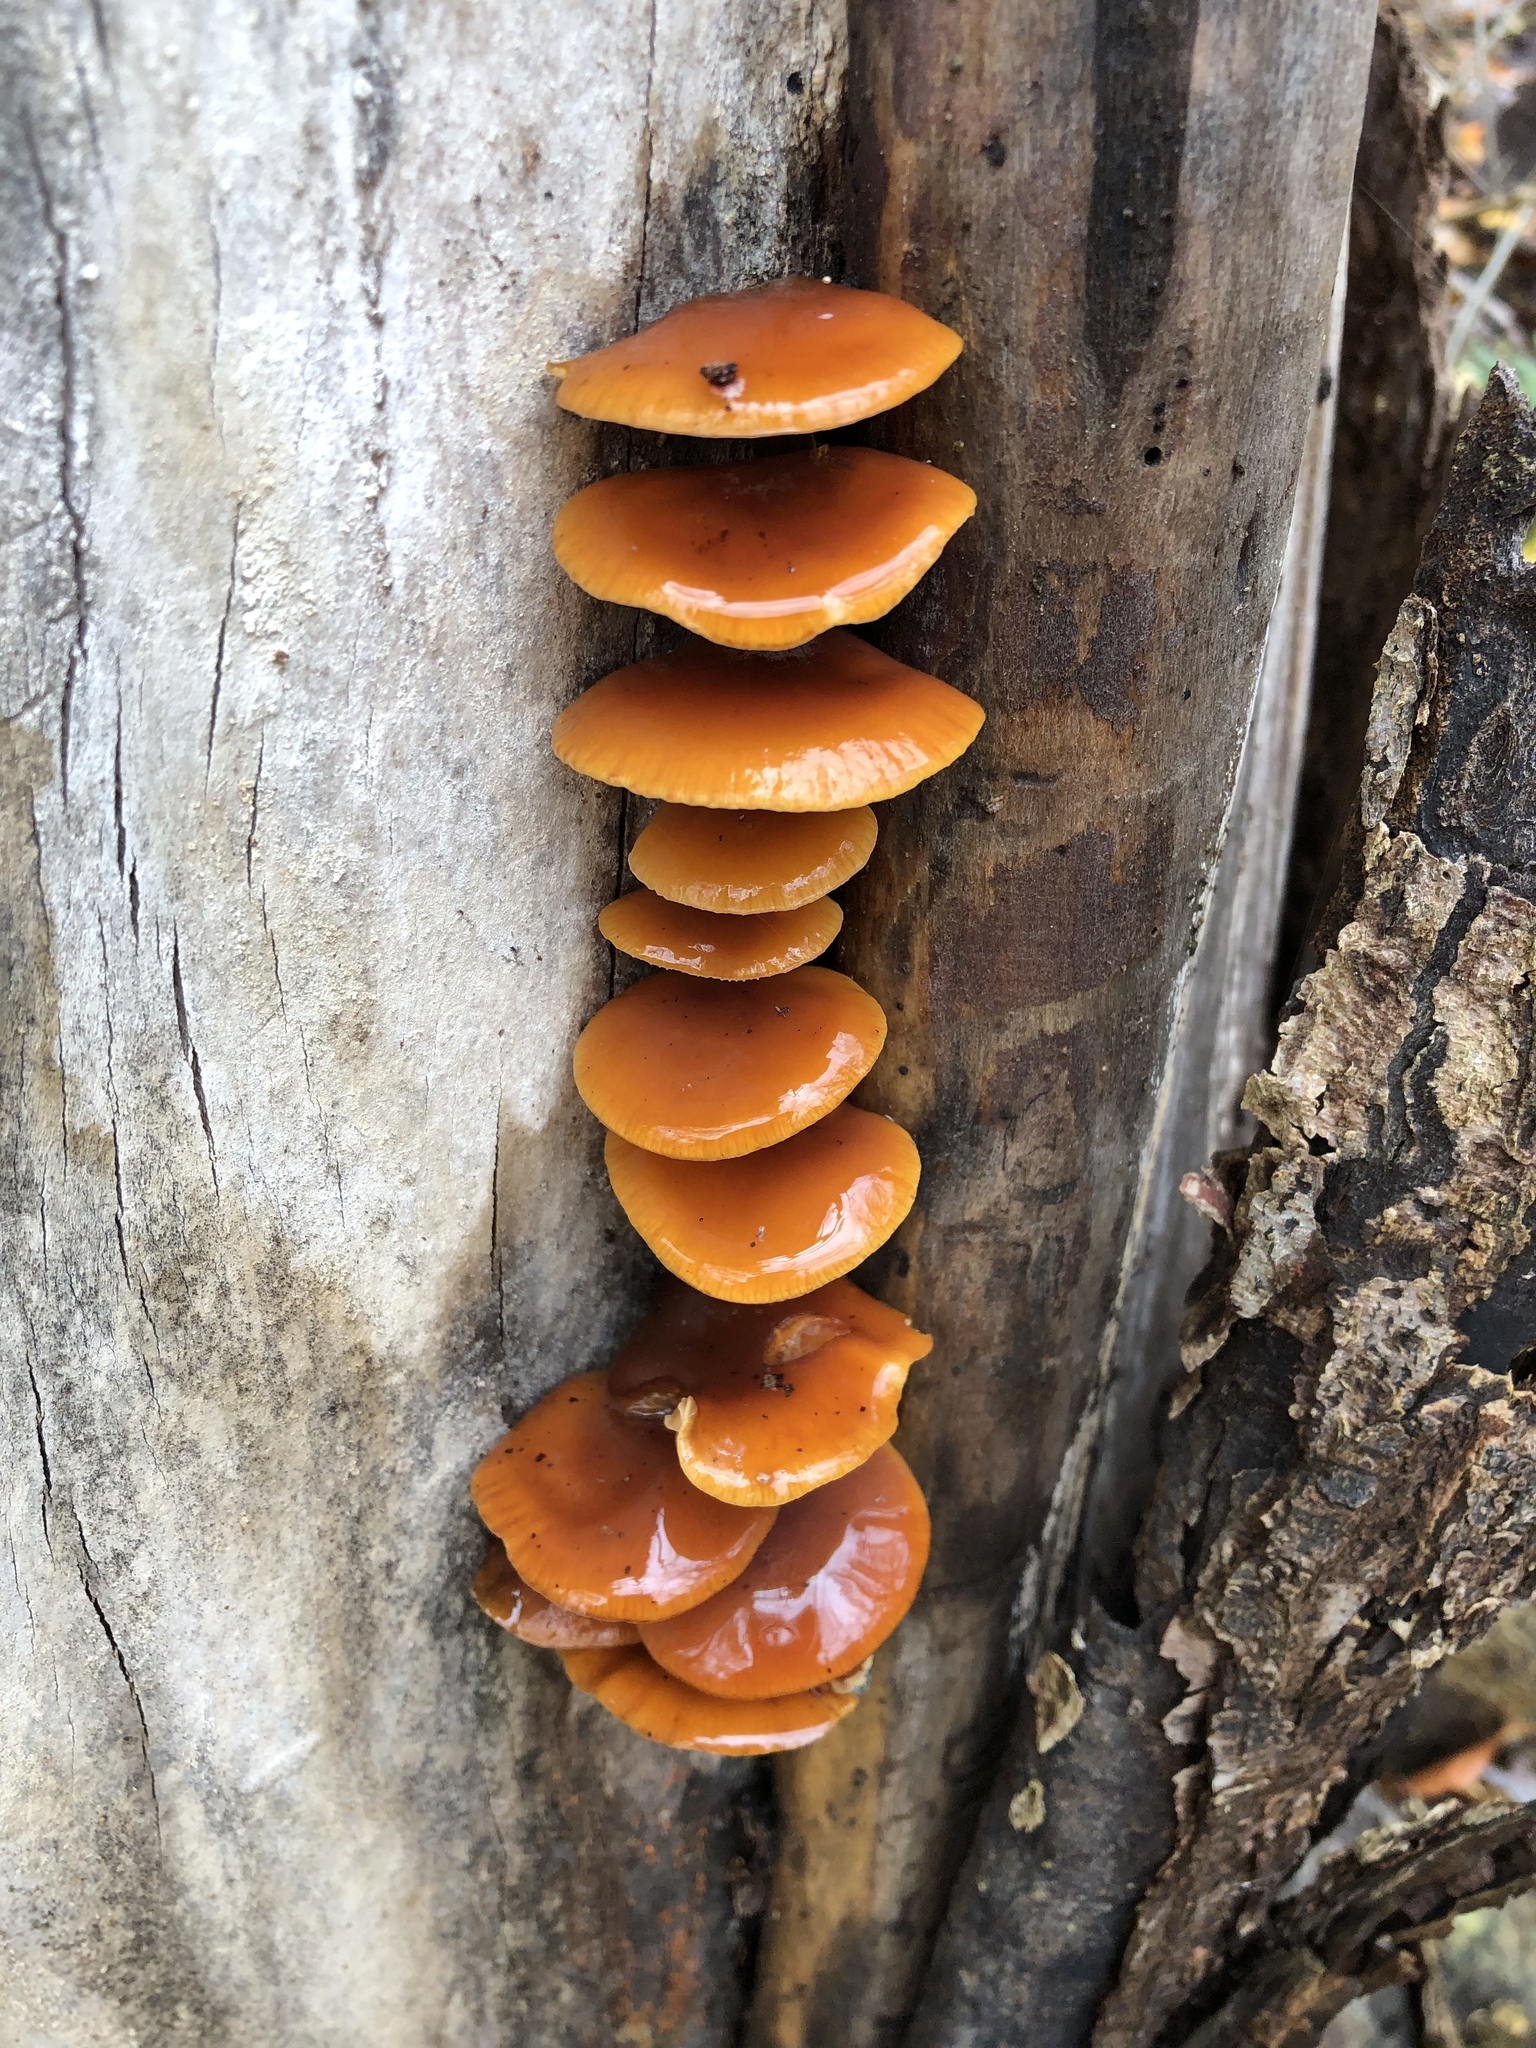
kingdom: Fungi
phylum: Basidiomycota
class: Agaricomycetes
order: Agaricales
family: Physalacriaceae
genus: Flammulina
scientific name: Flammulina velutipes
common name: Velvet shank
